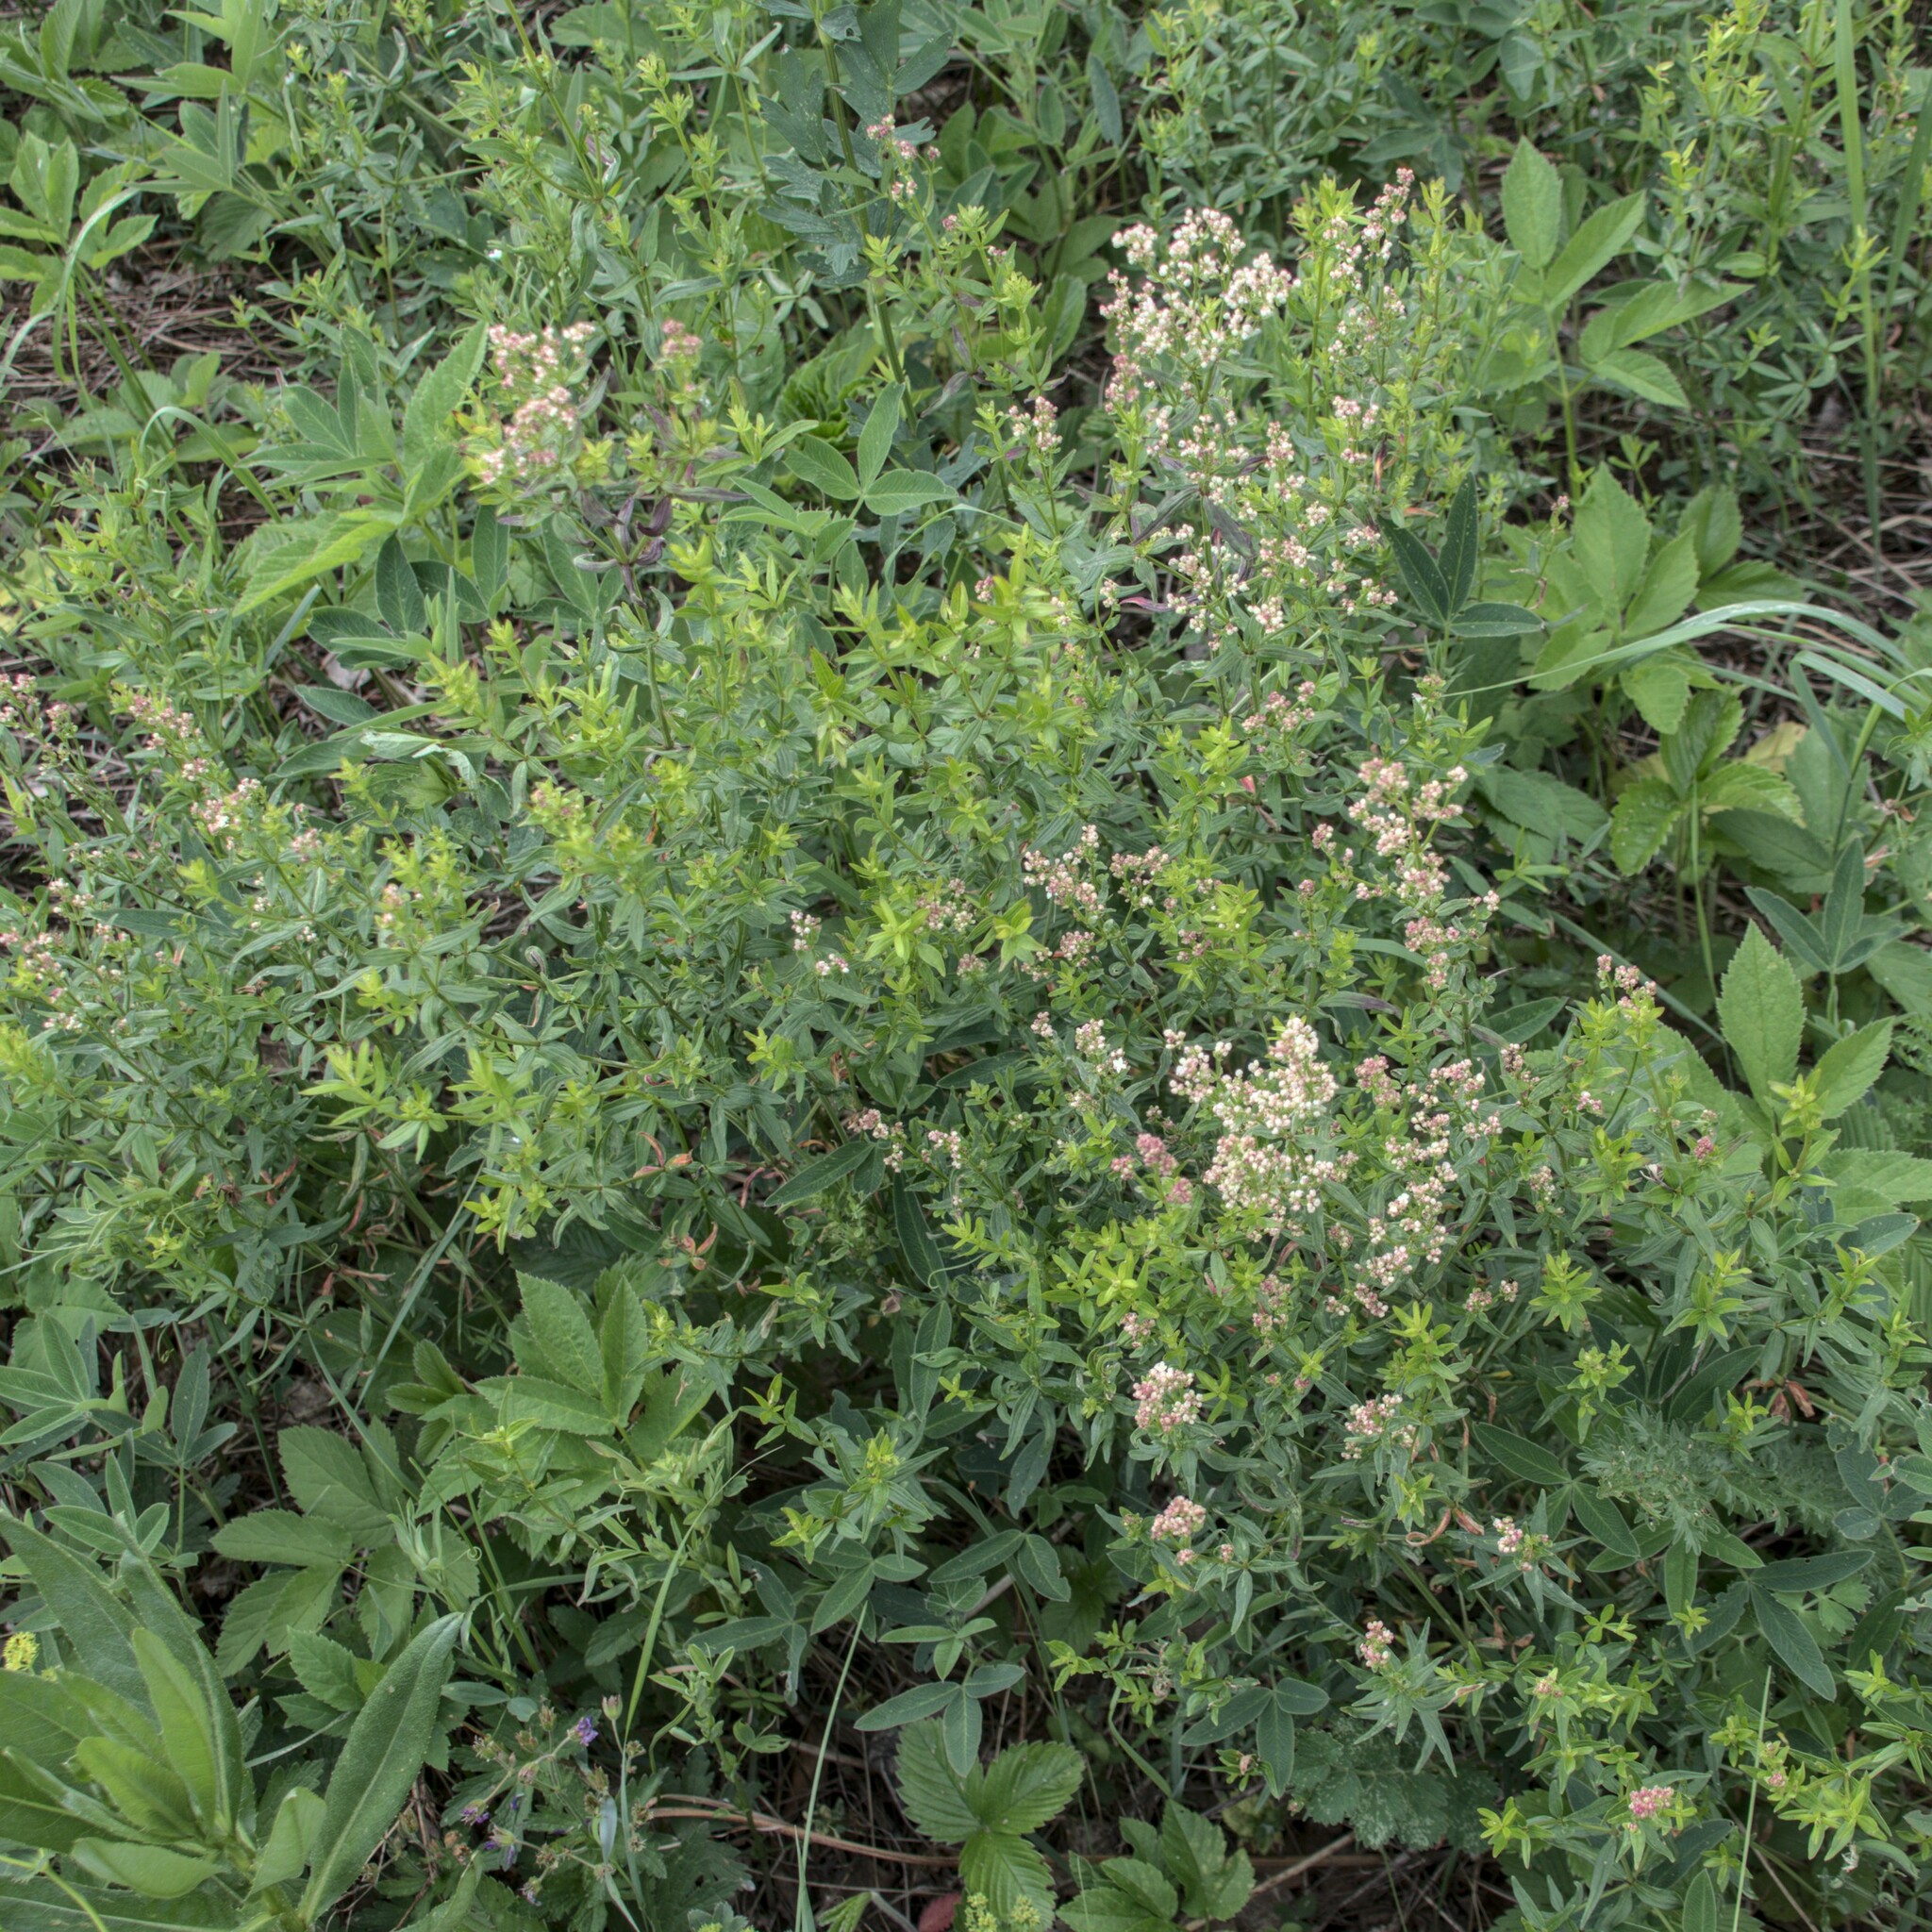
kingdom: Plantae
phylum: Tracheophyta
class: Magnoliopsida
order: Gentianales
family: Rubiaceae
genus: Galium
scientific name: Galium boreale
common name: Northern bedstraw
